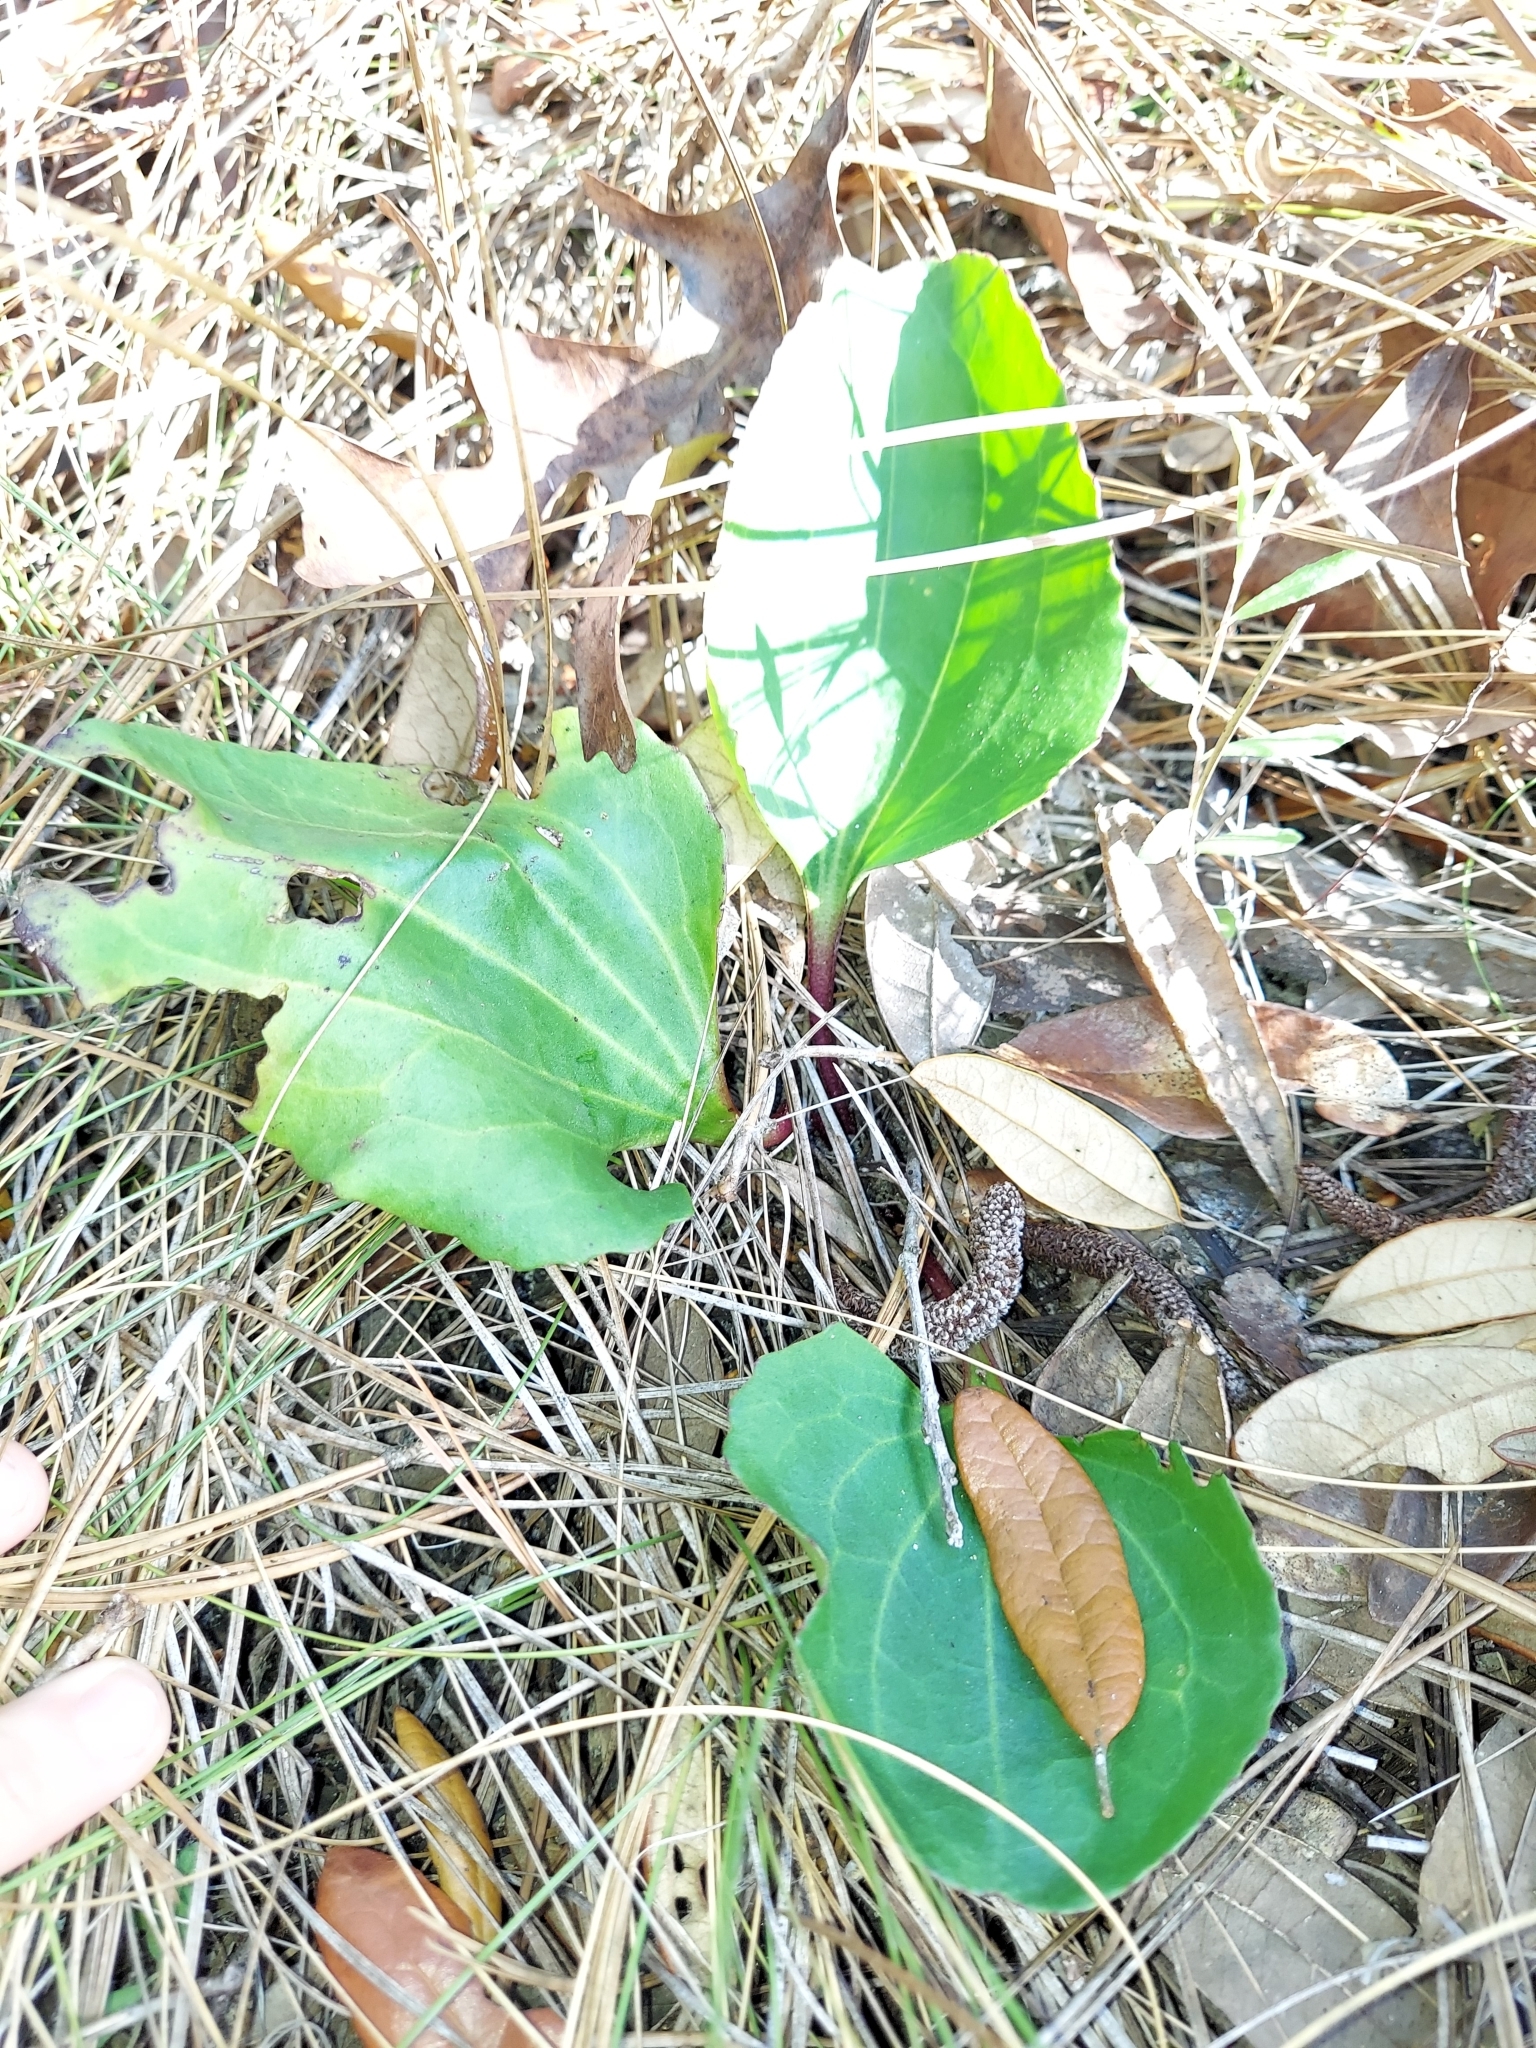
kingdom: Plantae
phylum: Tracheophyta
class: Magnoliopsida
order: Asterales
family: Asteraceae
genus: Arnoglossum
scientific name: Arnoglossum floridanum
